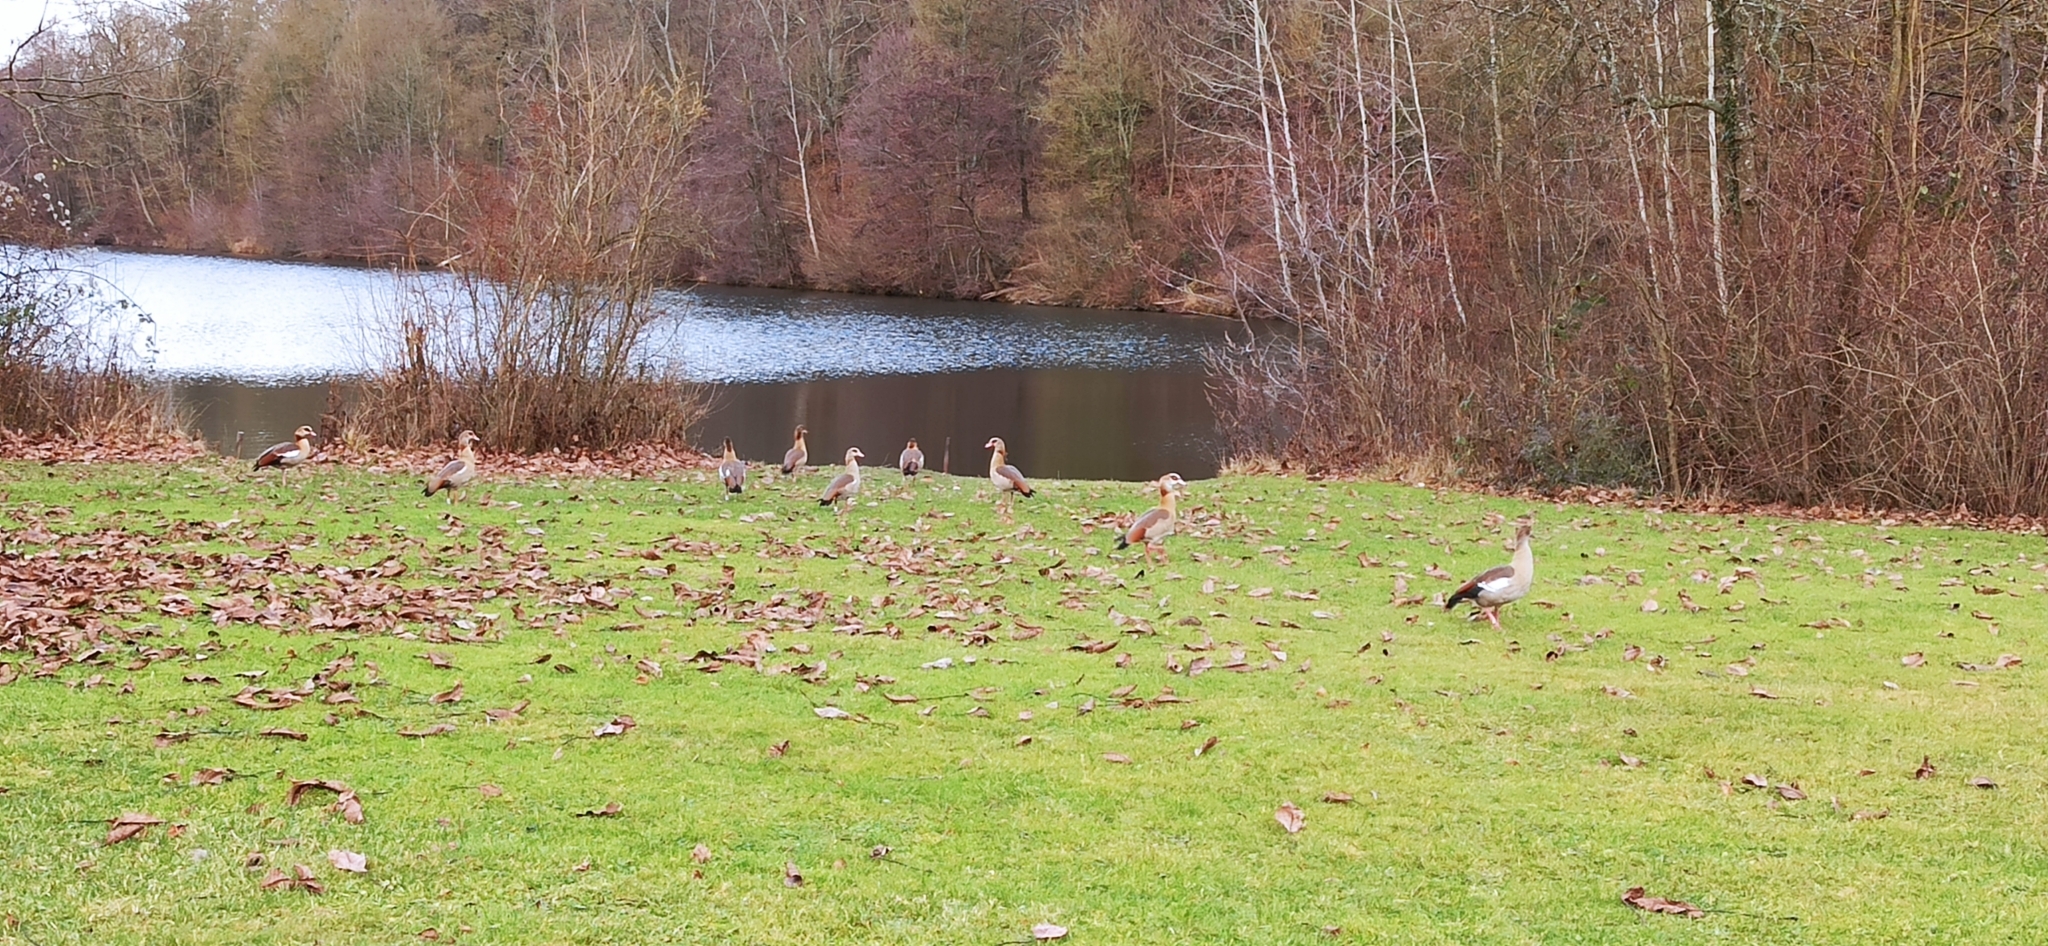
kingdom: Animalia
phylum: Chordata
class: Aves
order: Anseriformes
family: Anatidae
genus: Alopochen
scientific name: Alopochen aegyptiaca
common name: Egyptian goose
